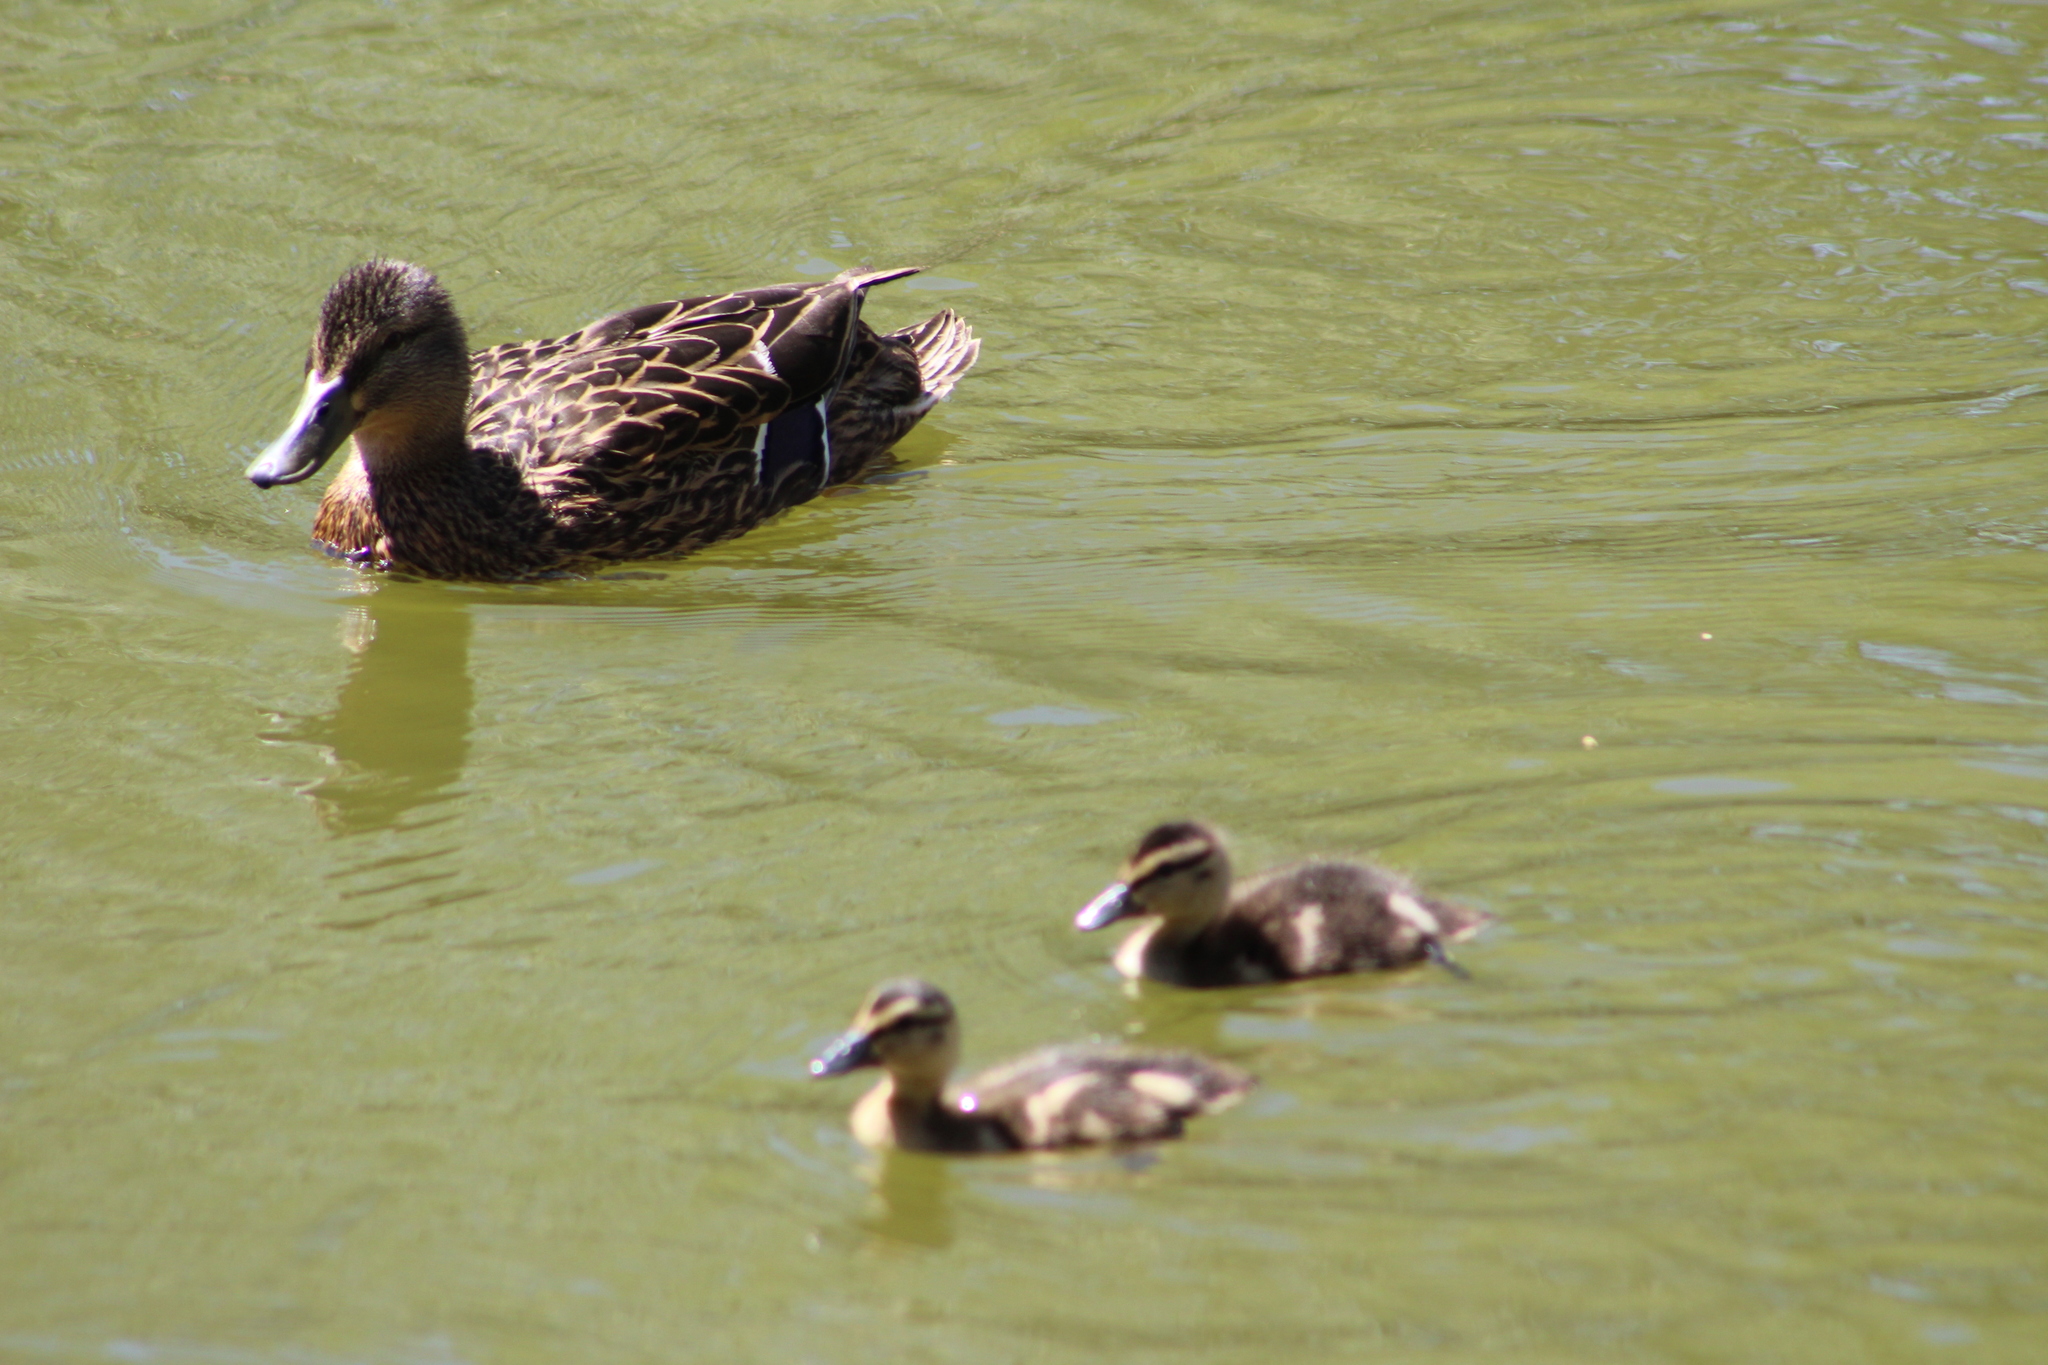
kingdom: Animalia
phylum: Chordata
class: Aves
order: Anseriformes
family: Anatidae
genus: Anas
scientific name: Anas platyrhynchos
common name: Mallard
